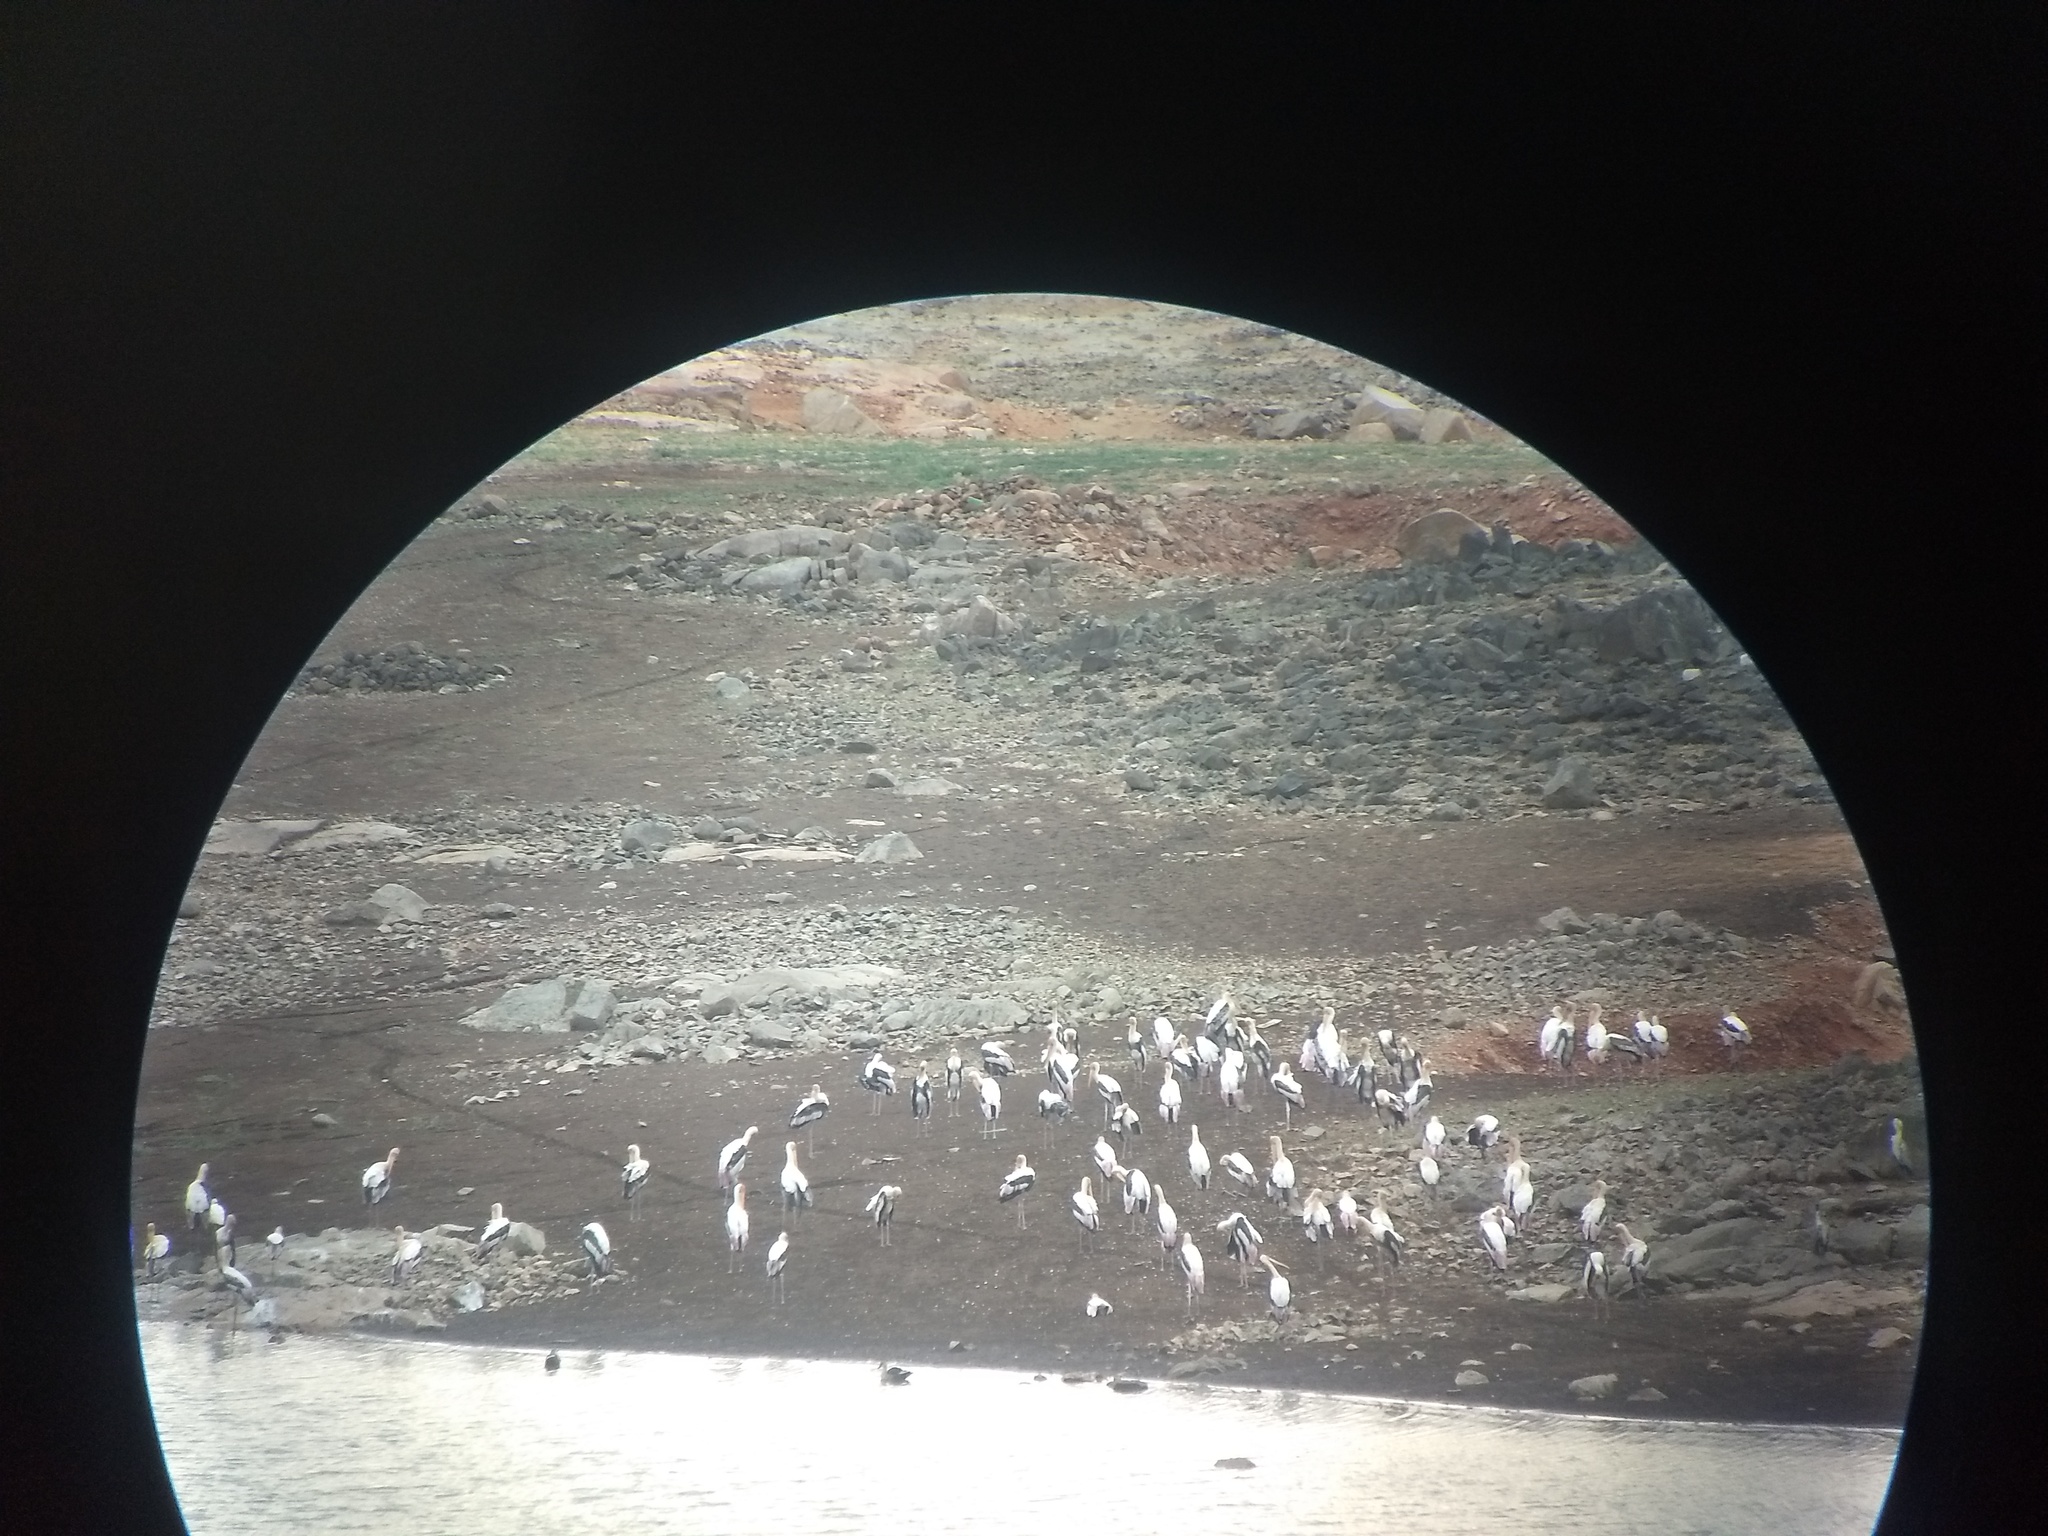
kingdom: Animalia
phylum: Chordata
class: Aves
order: Ciconiiformes
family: Ciconiidae
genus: Mycteria
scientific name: Mycteria leucocephala
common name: Painted stork
